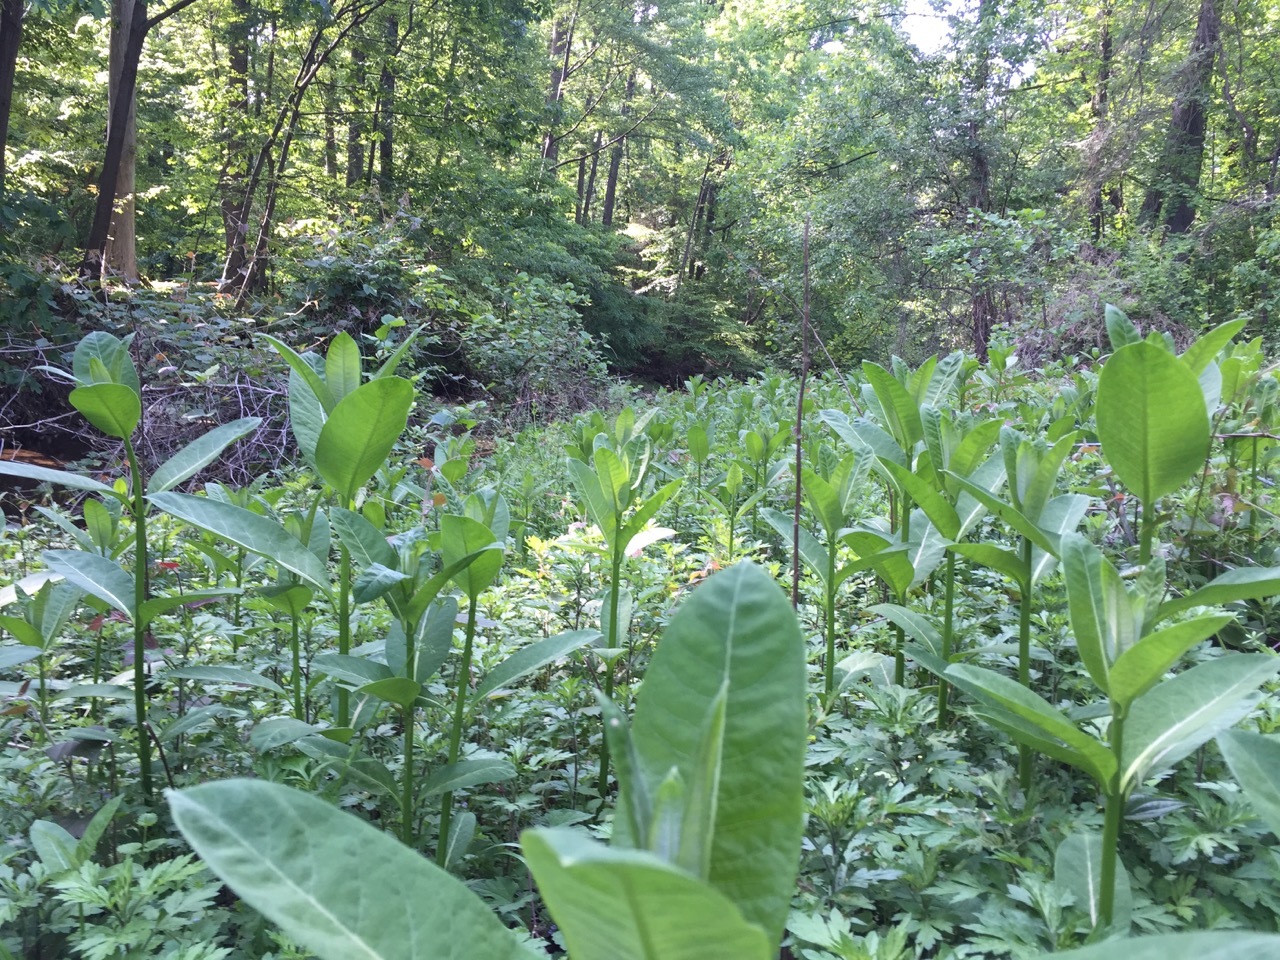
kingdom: Plantae
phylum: Tracheophyta
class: Magnoliopsida
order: Gentianales
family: Apocynaceae
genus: Asclepias
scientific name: Asclepias syriaca
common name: Common milkweed
